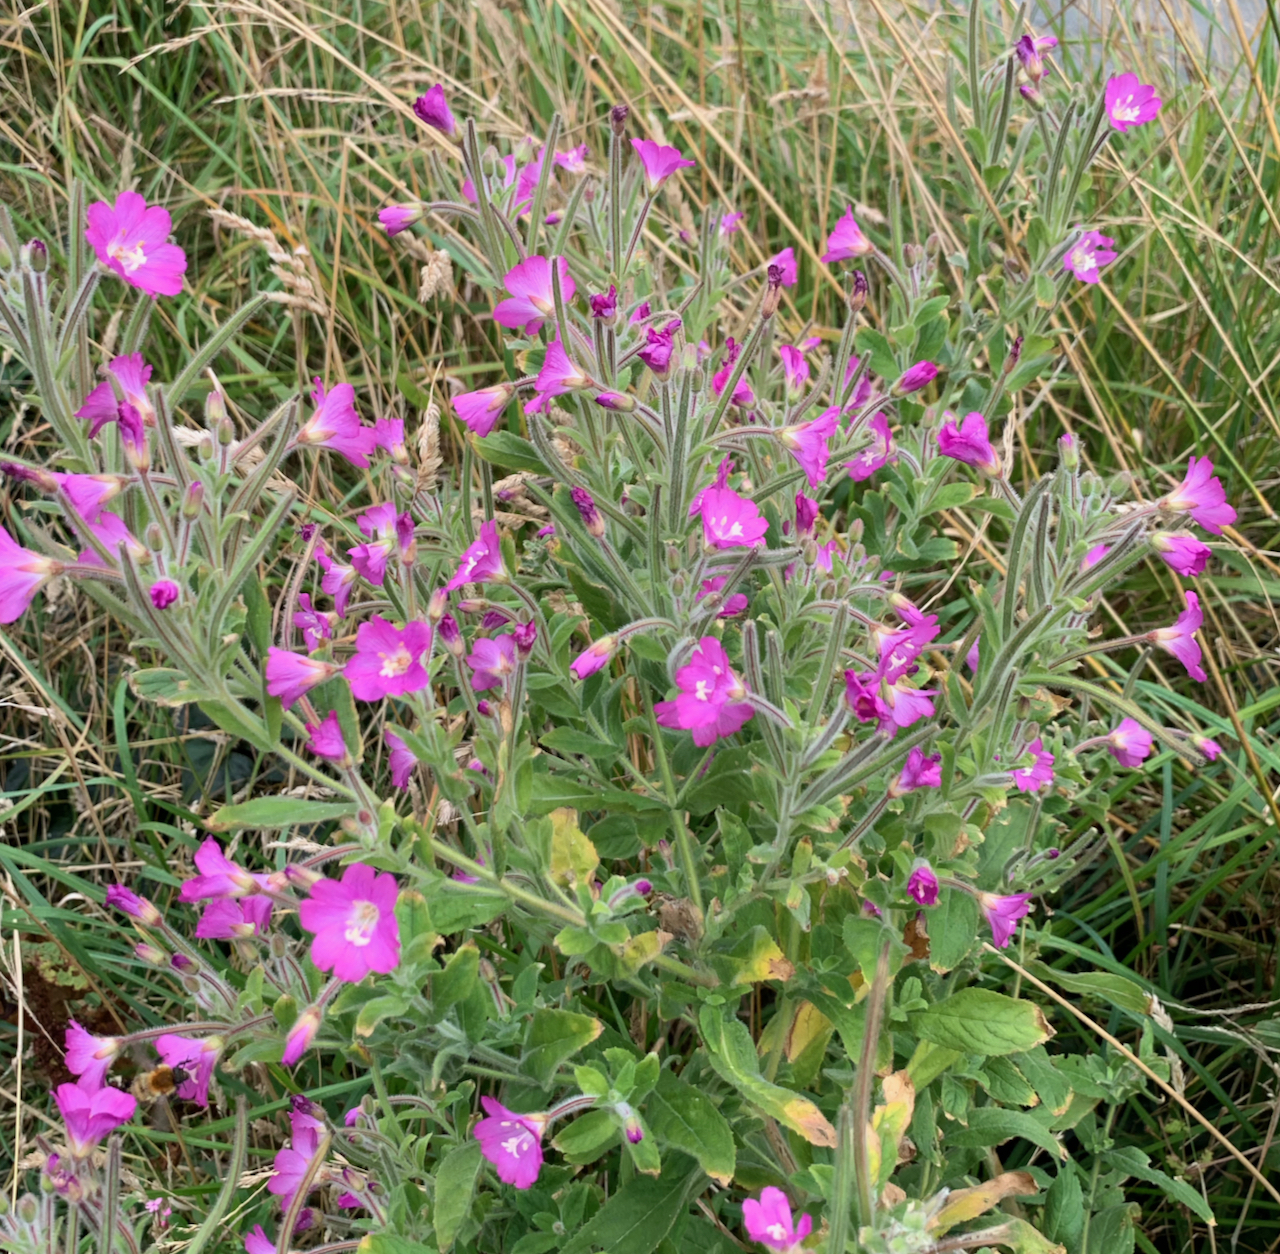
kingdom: Plantae
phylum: Tracheophyta
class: Magnoliopsida
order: Myrtales
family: Onagraceae
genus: Epilobium
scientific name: Epilobium hirsutum
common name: Great willowherb
